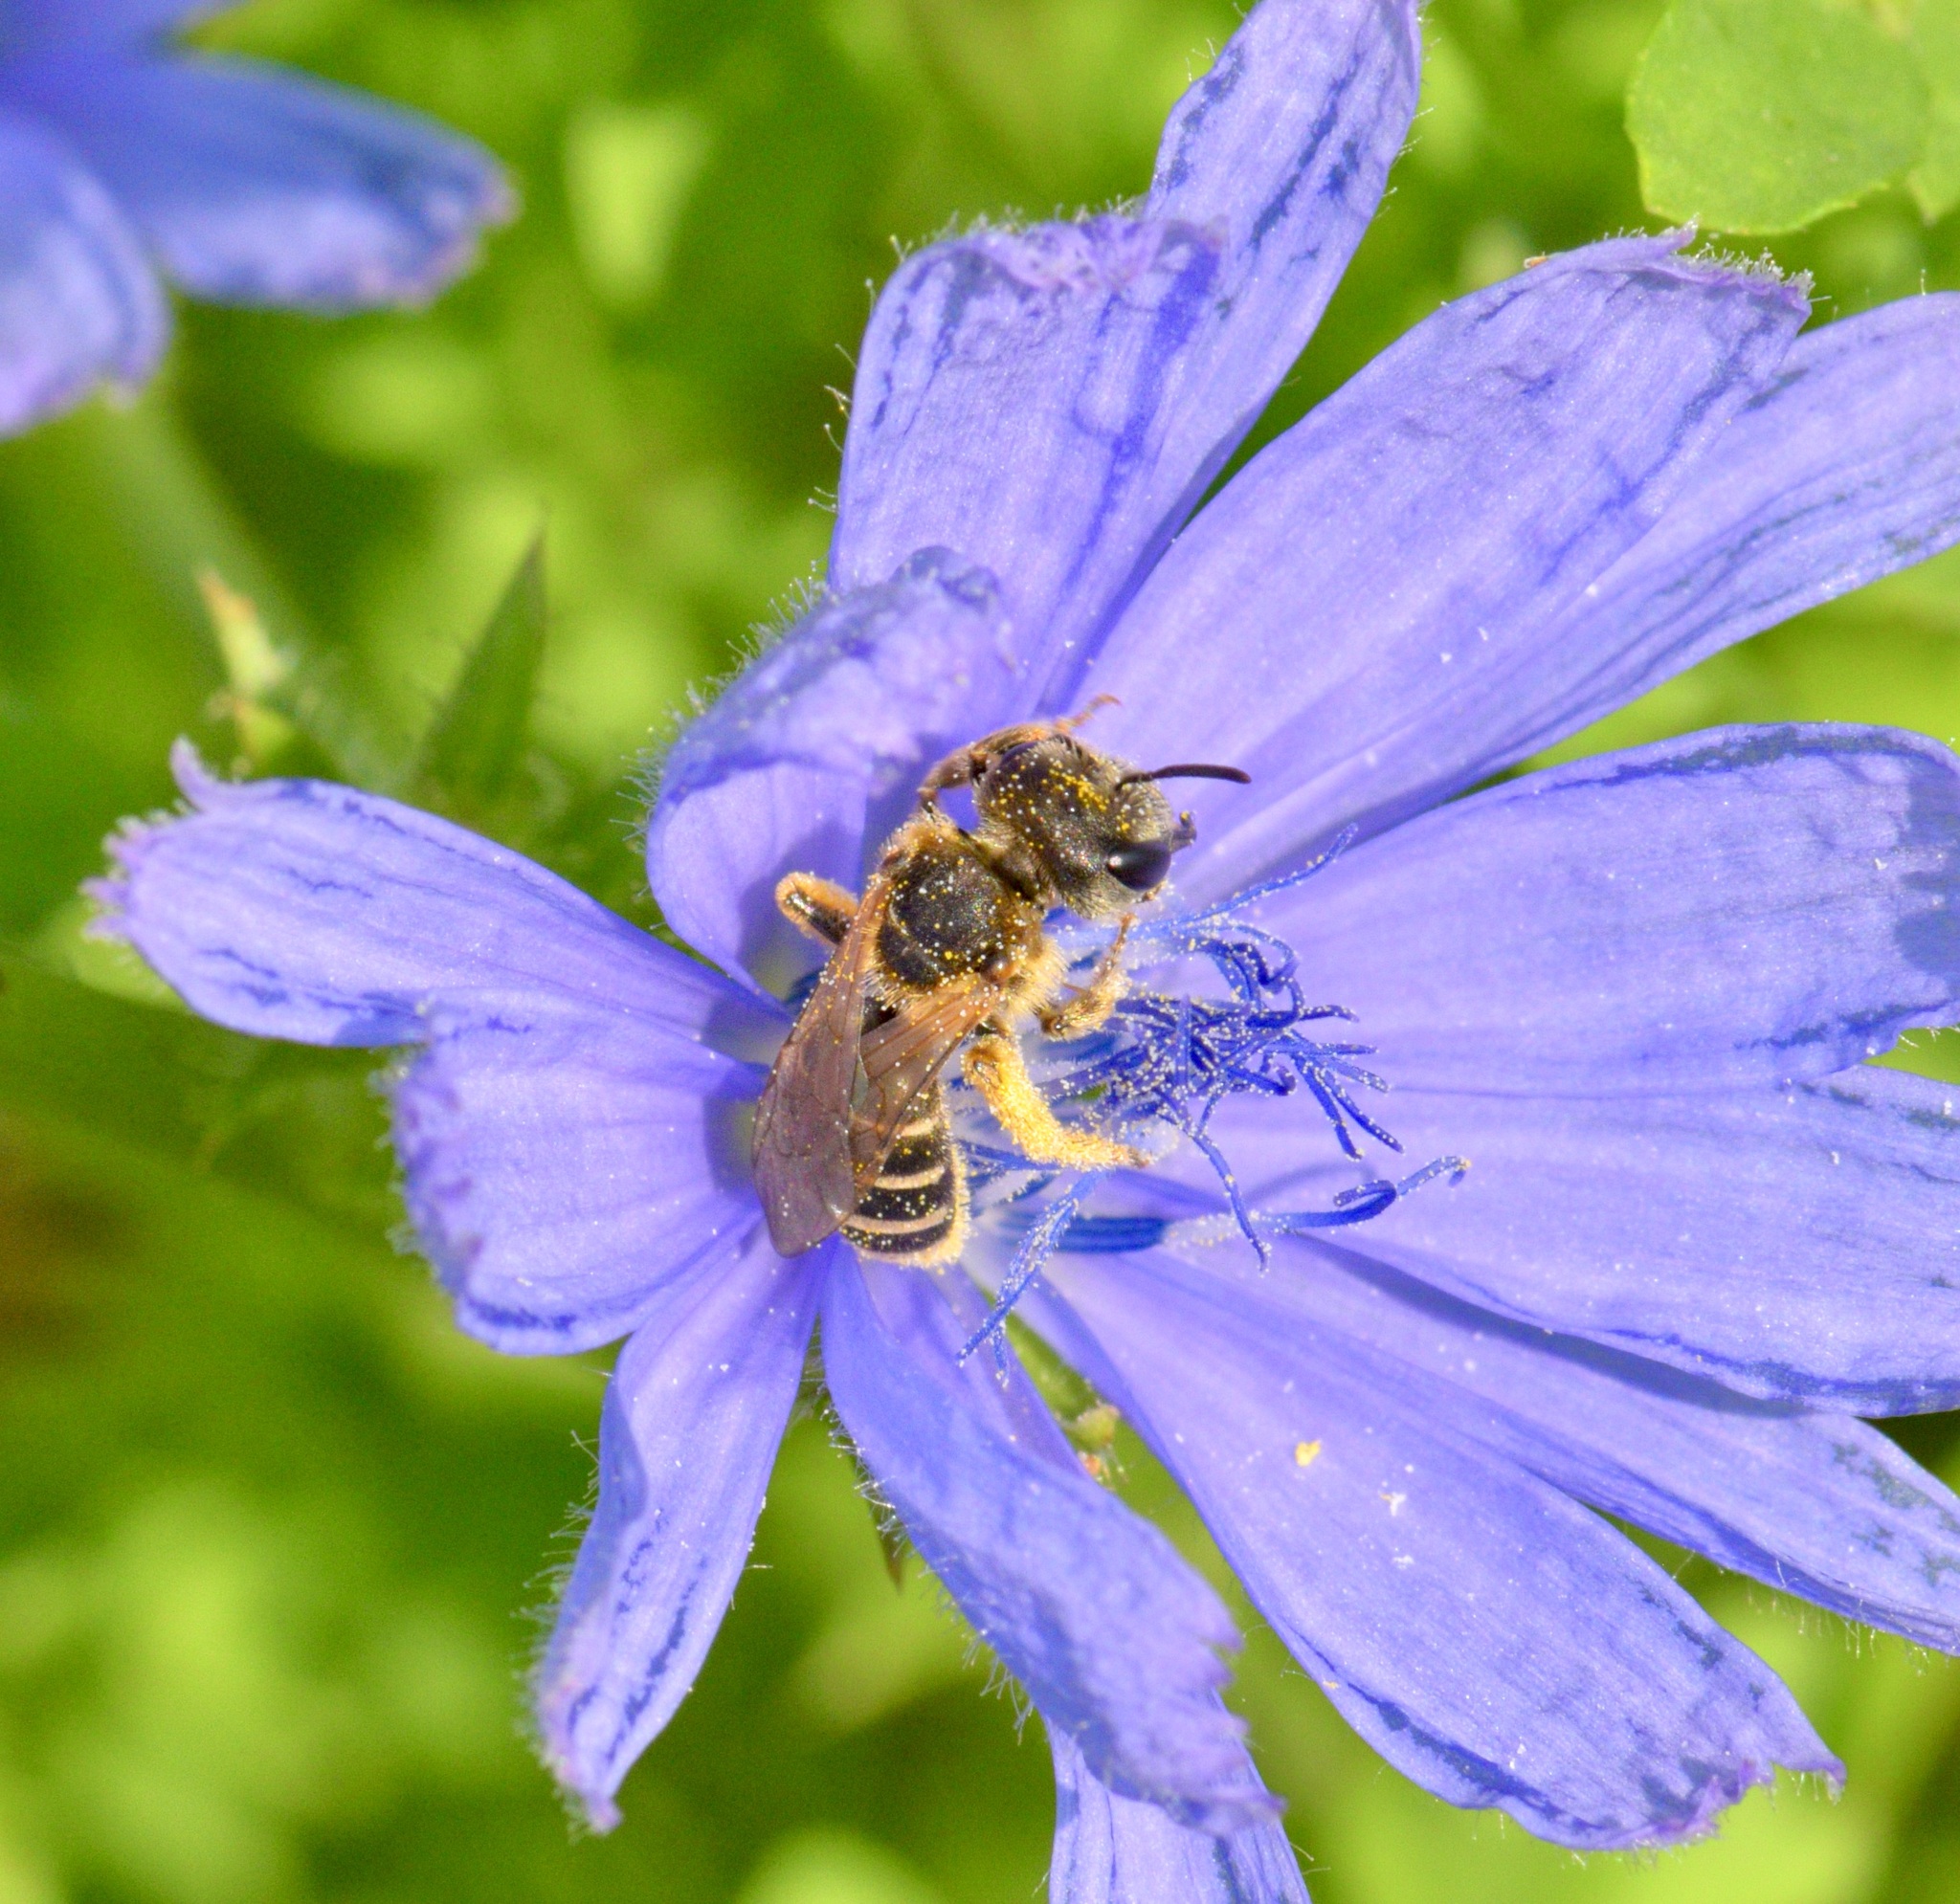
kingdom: Animalia
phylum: Arthropoda
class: Insecta
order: Hymenoptera
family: Halictidae
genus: Halictus
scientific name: Halictus ligatus
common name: Ligated furrow bee
